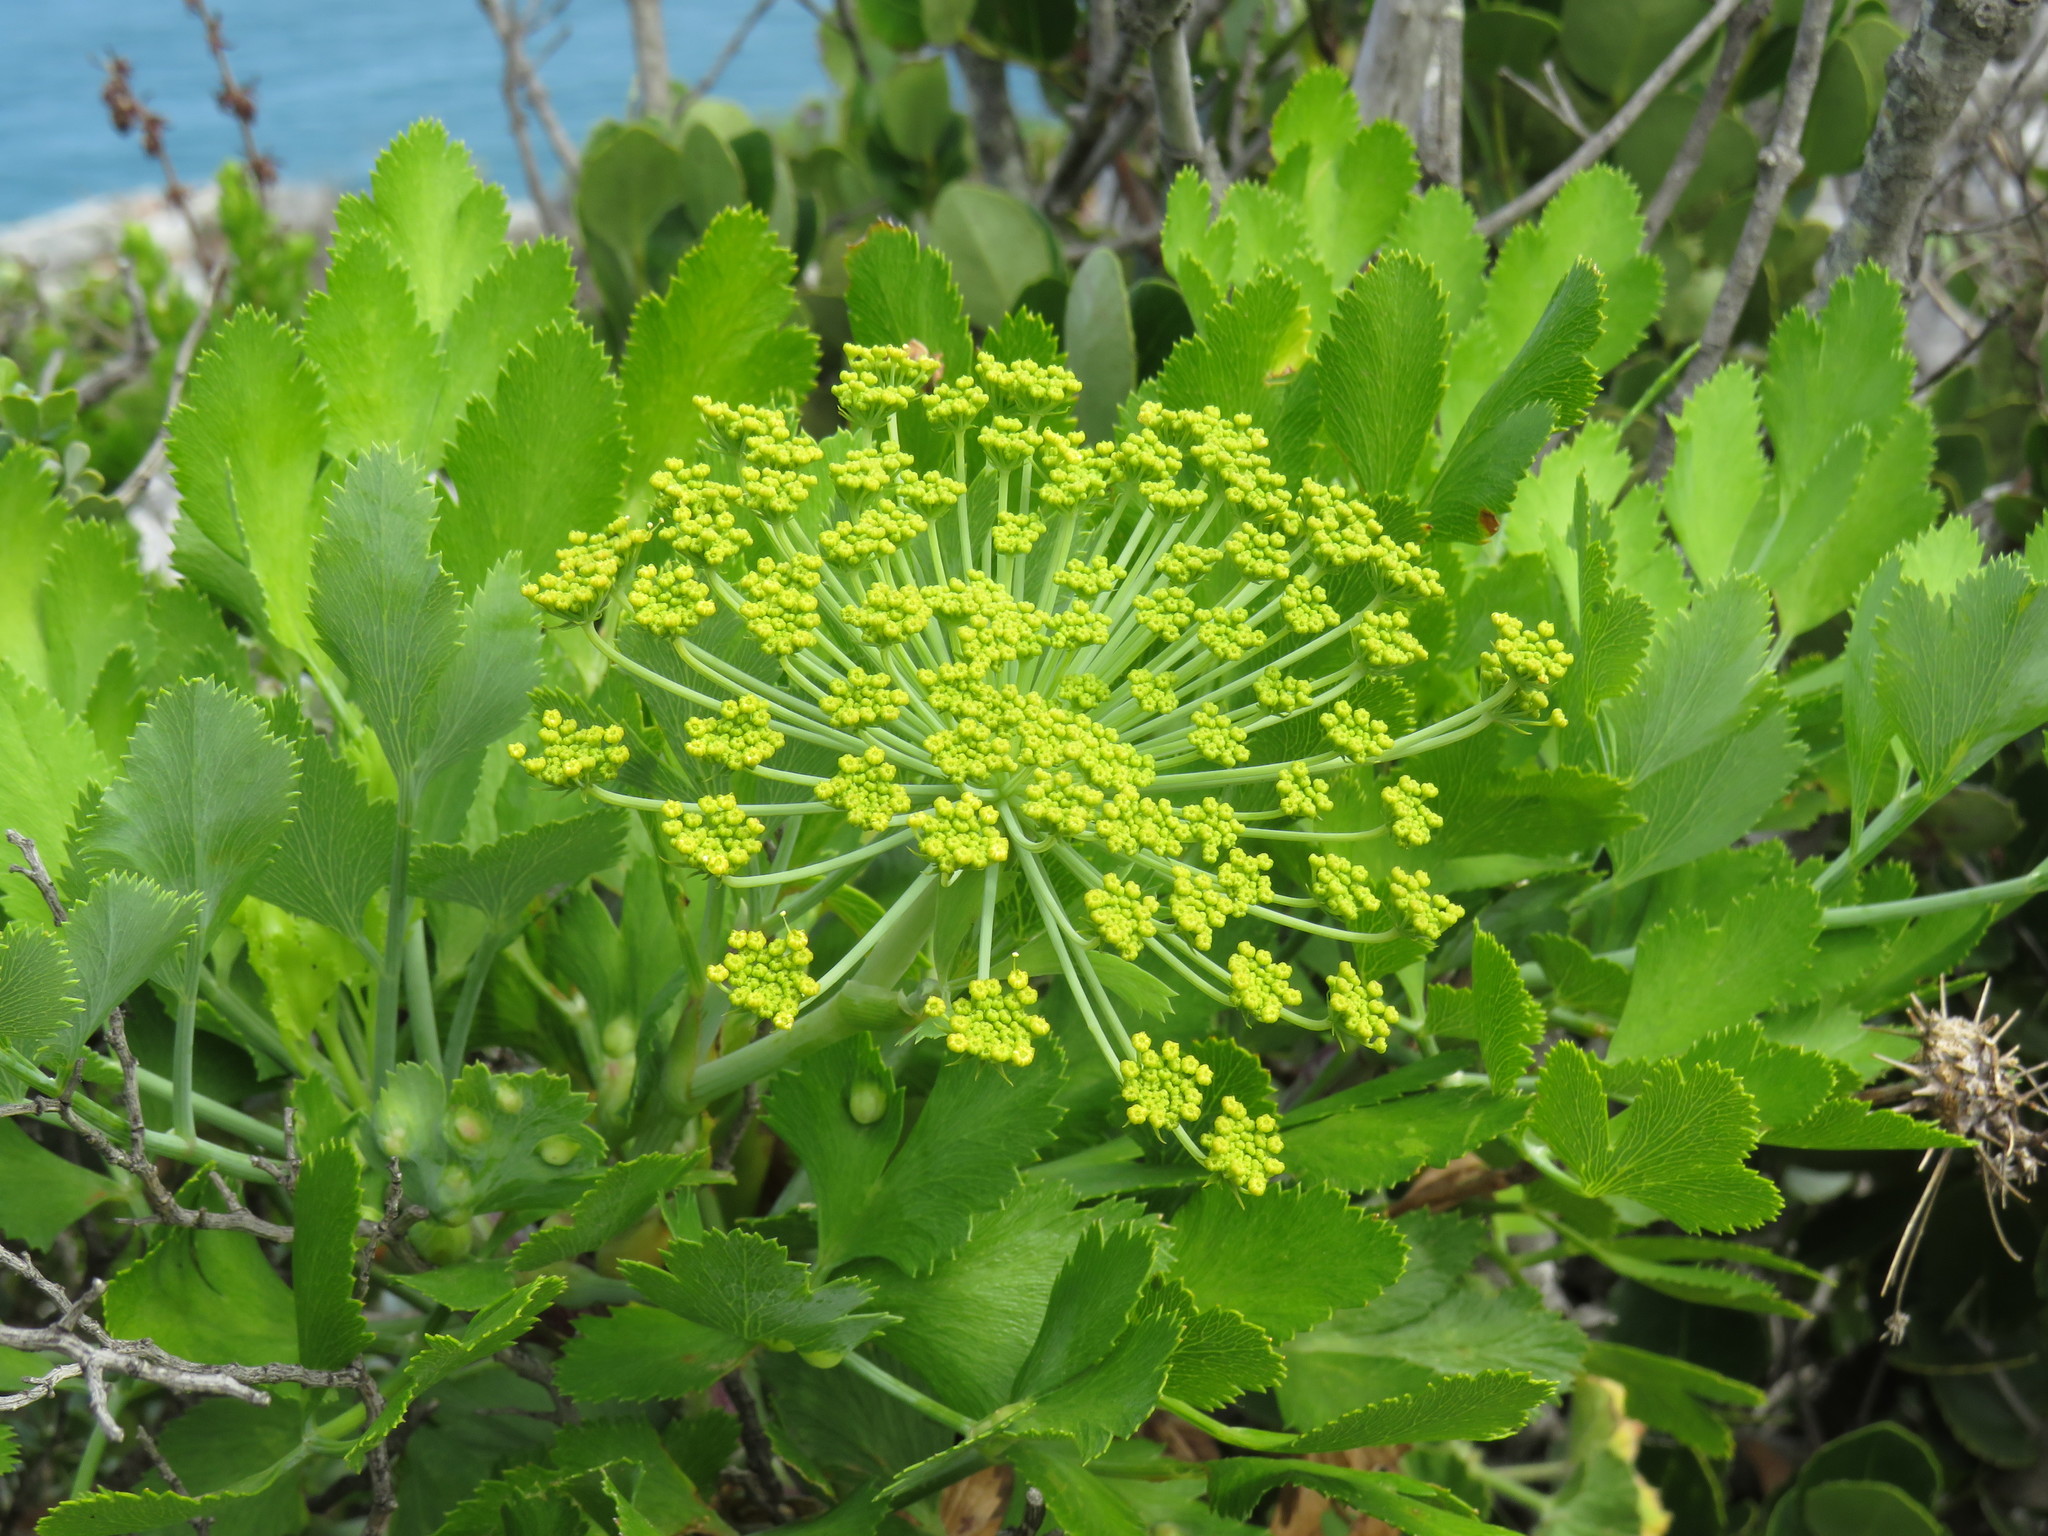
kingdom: Plantae
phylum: Tracheophyta
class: Magnoliopsida
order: Apiales
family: Apiaceae
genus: Notobubon
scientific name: Notobubon galbanum
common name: Blisterbush
